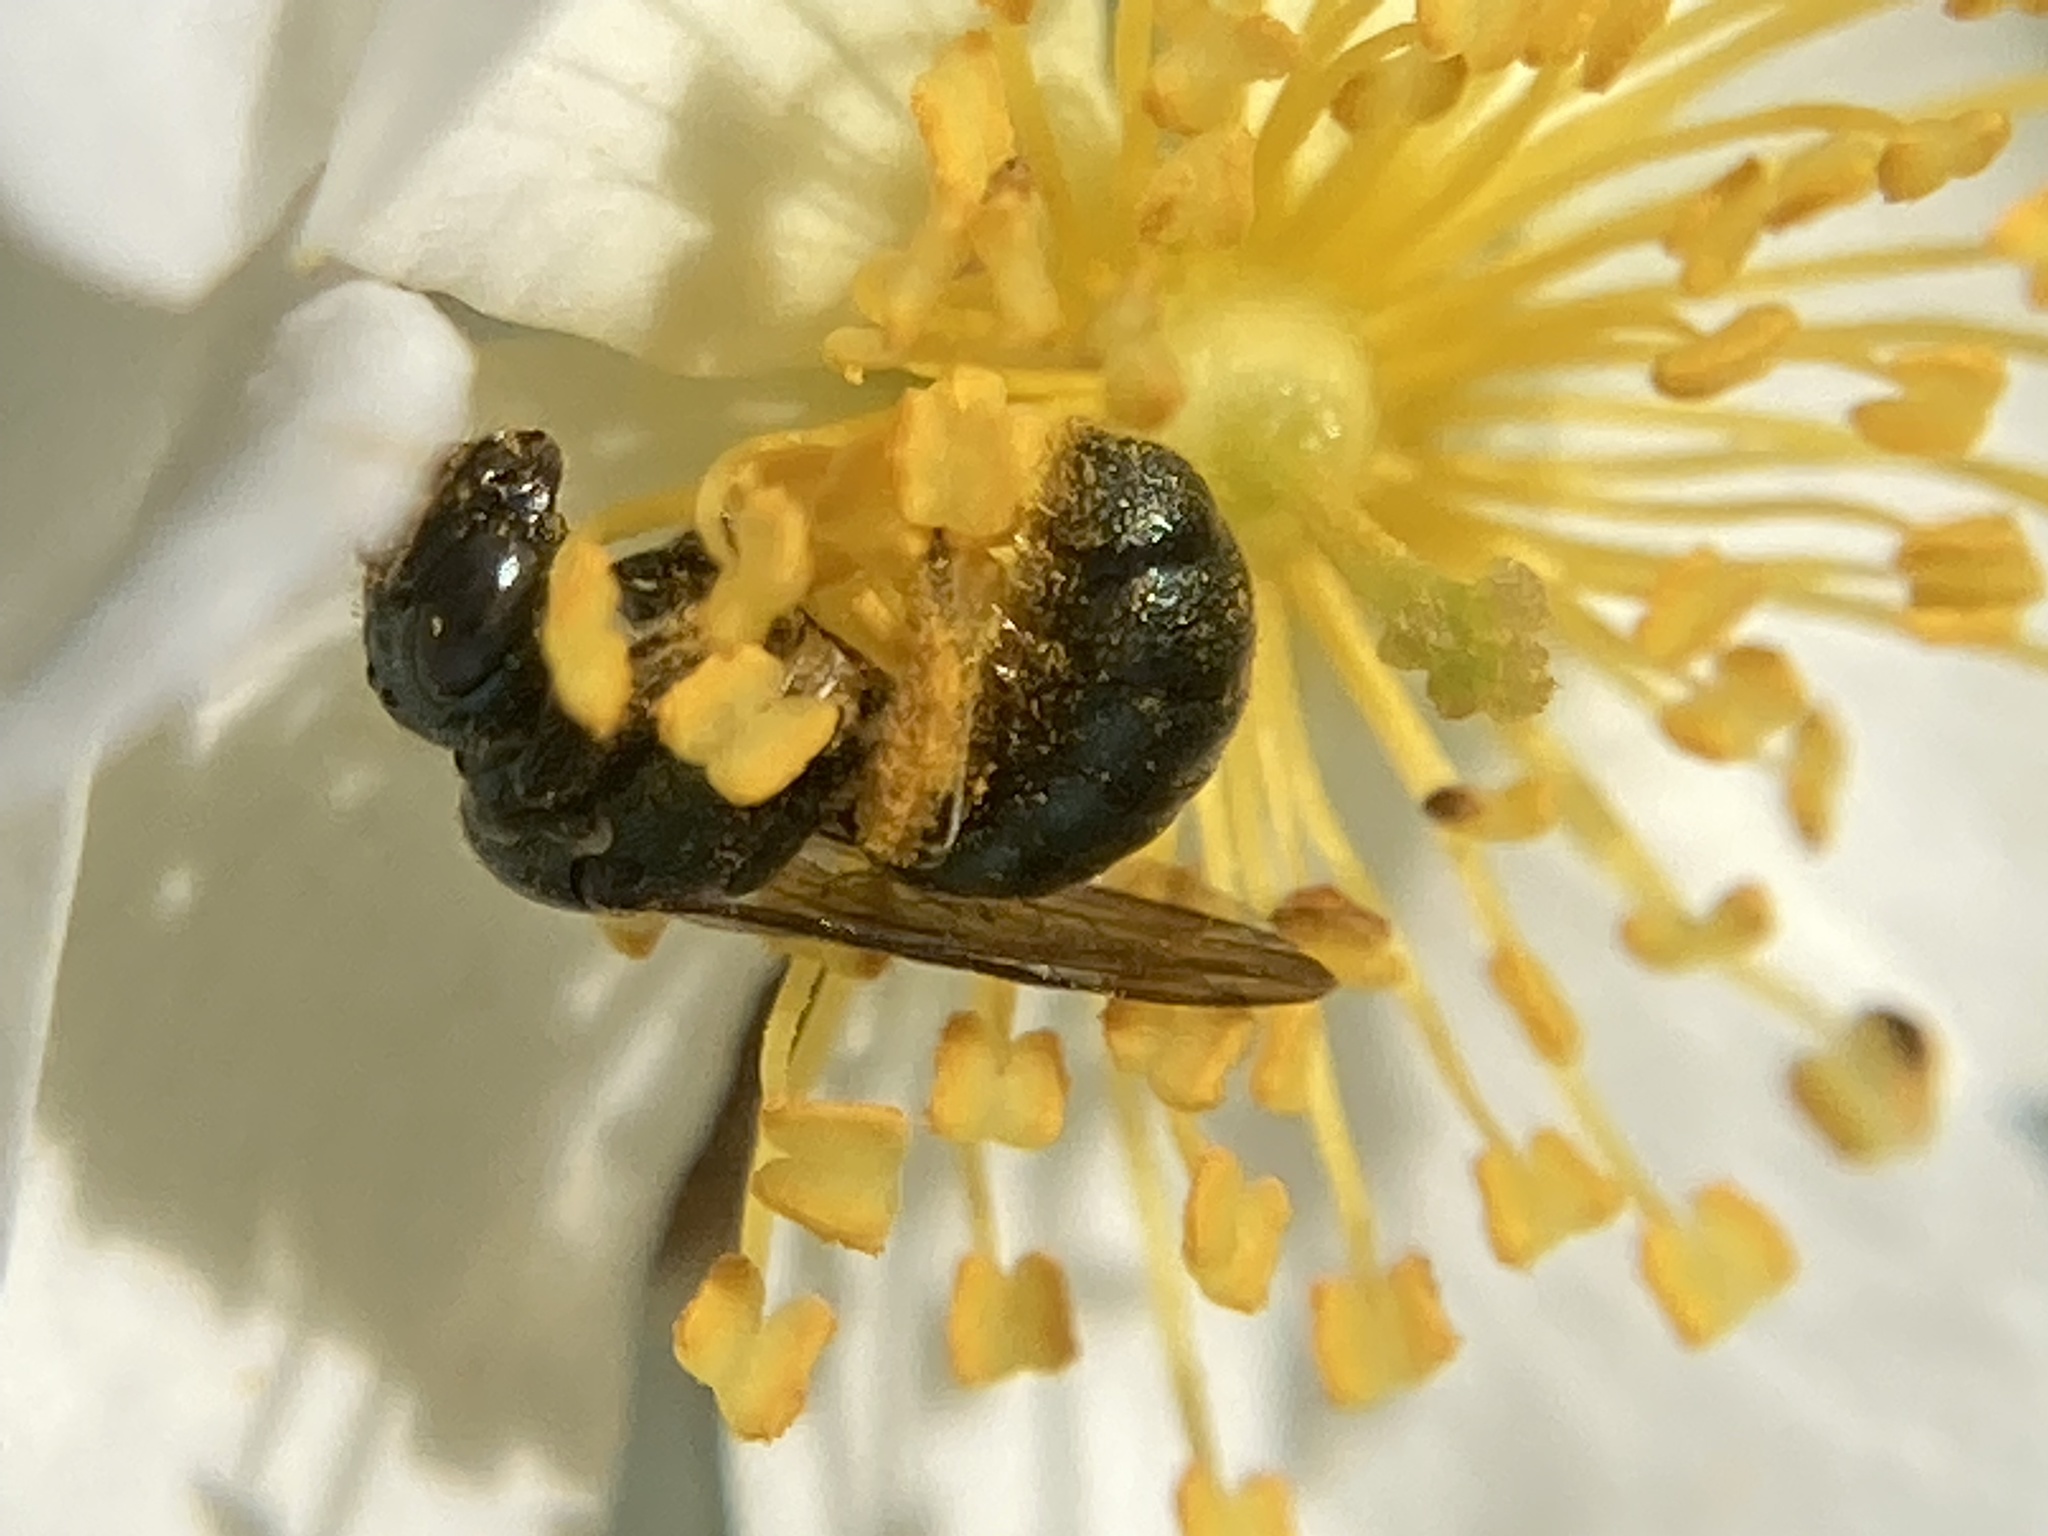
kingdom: Animalia
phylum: Arthropoda
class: Insecta
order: Hymenoptera
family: Apidae
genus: Zadontomerus
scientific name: Zadontomerus
